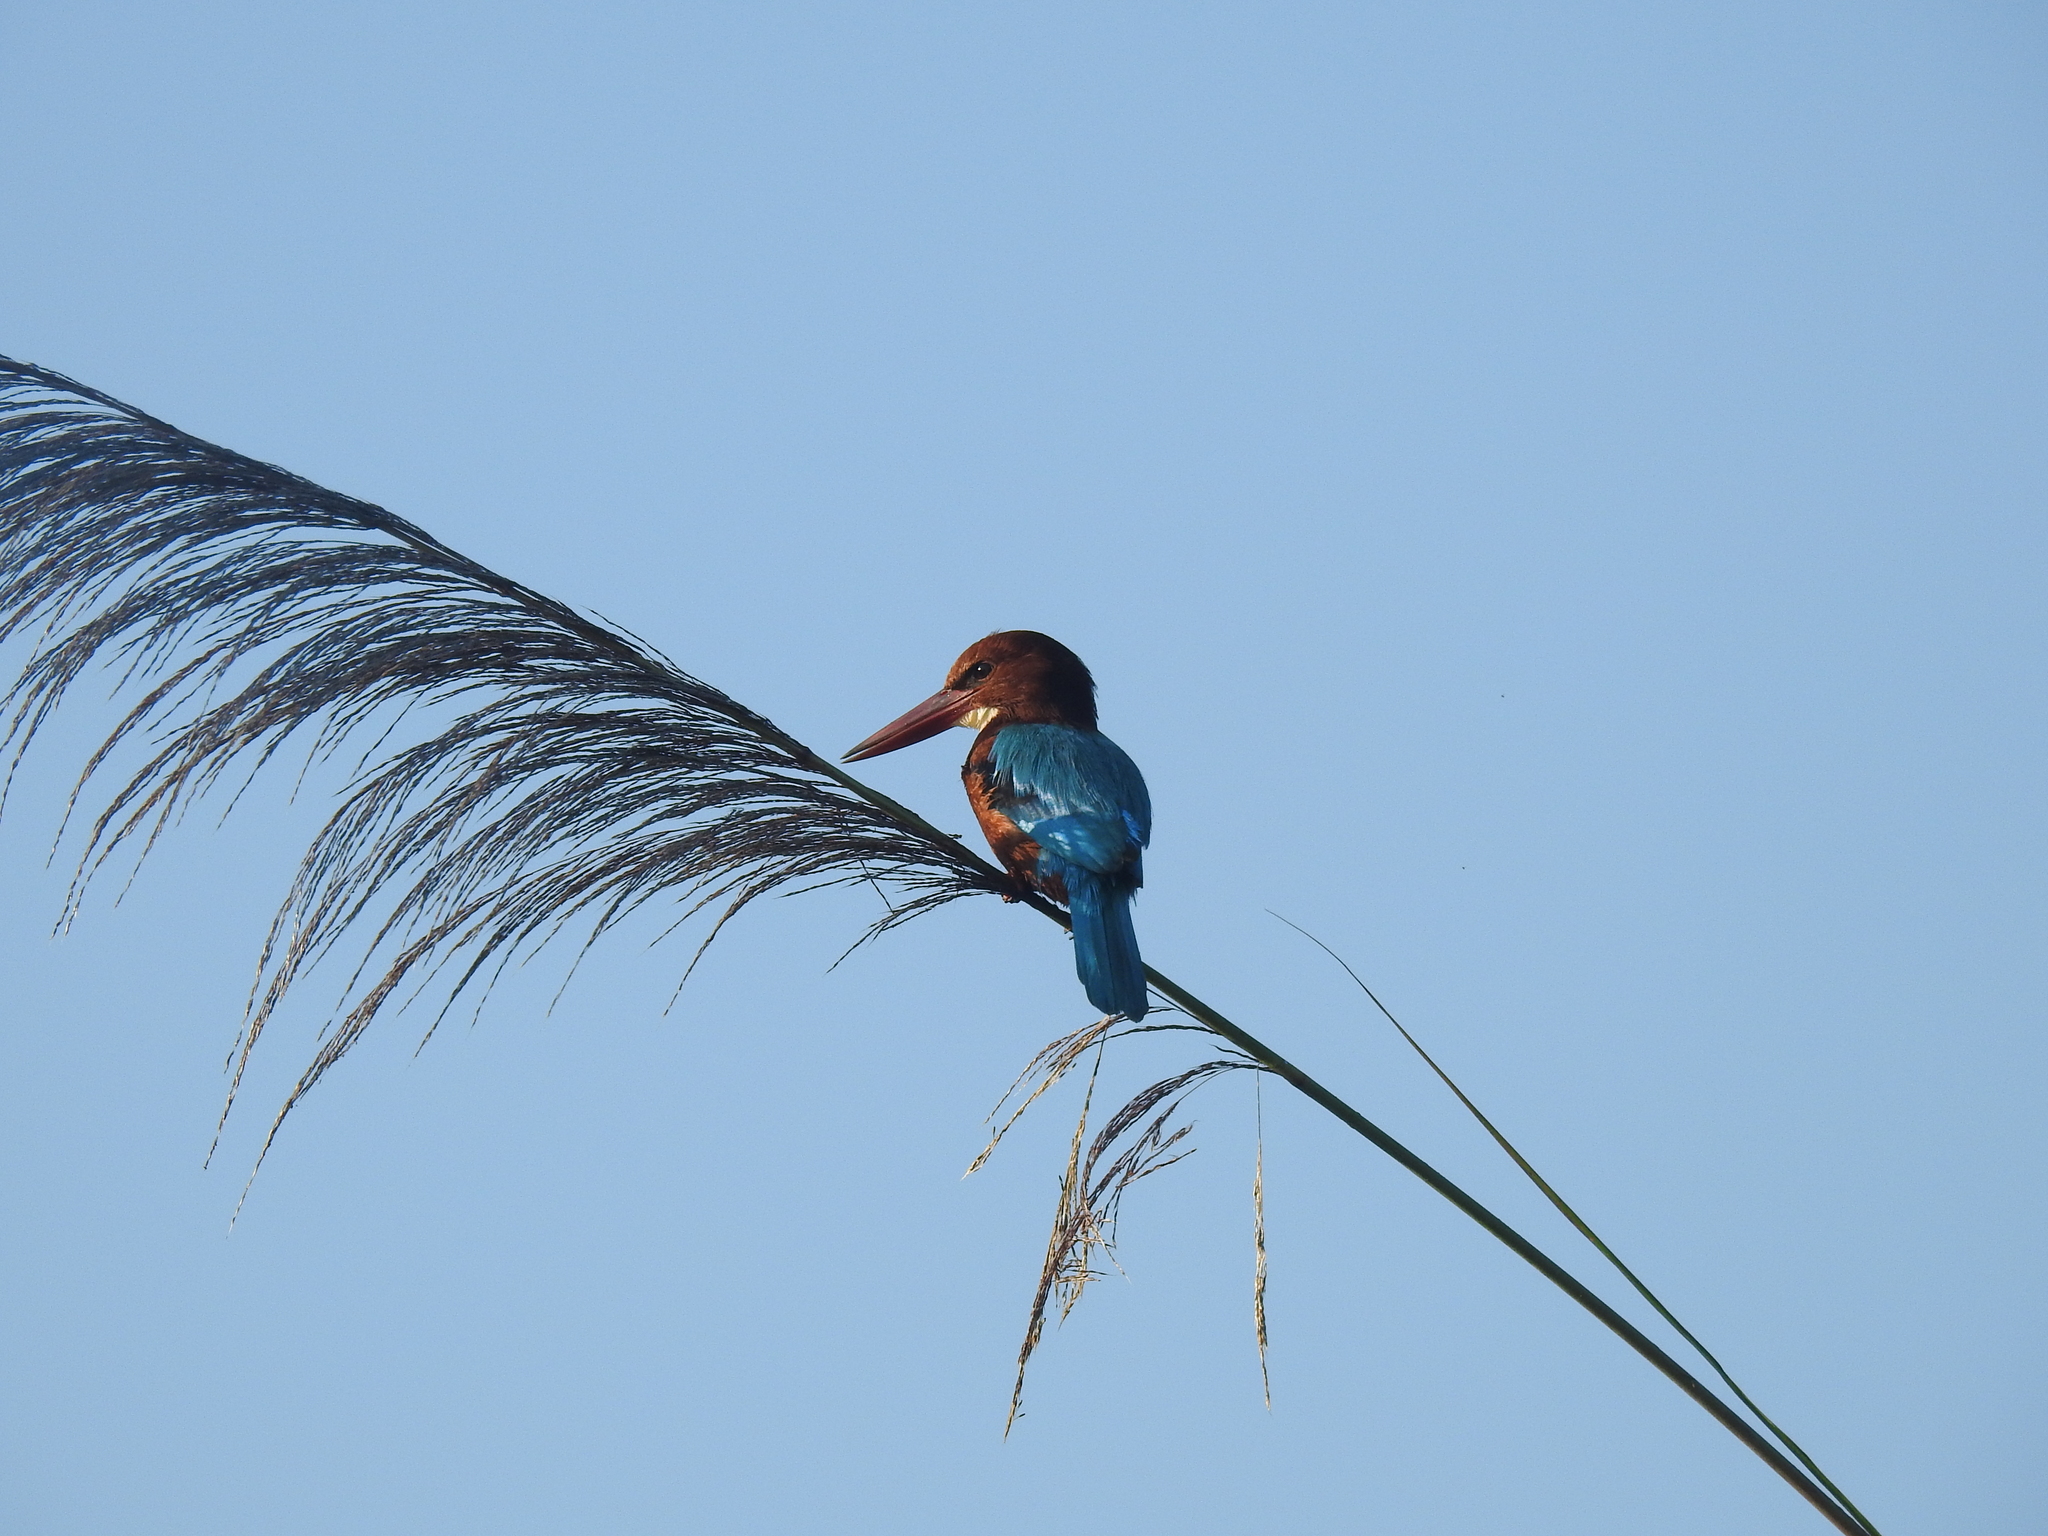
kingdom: Animalia
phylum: Chordata
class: Aves
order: Coraciiformes
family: Alcedinidae
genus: Halcyon
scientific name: Halcyon smyrnensis
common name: White-throated kingfisher
